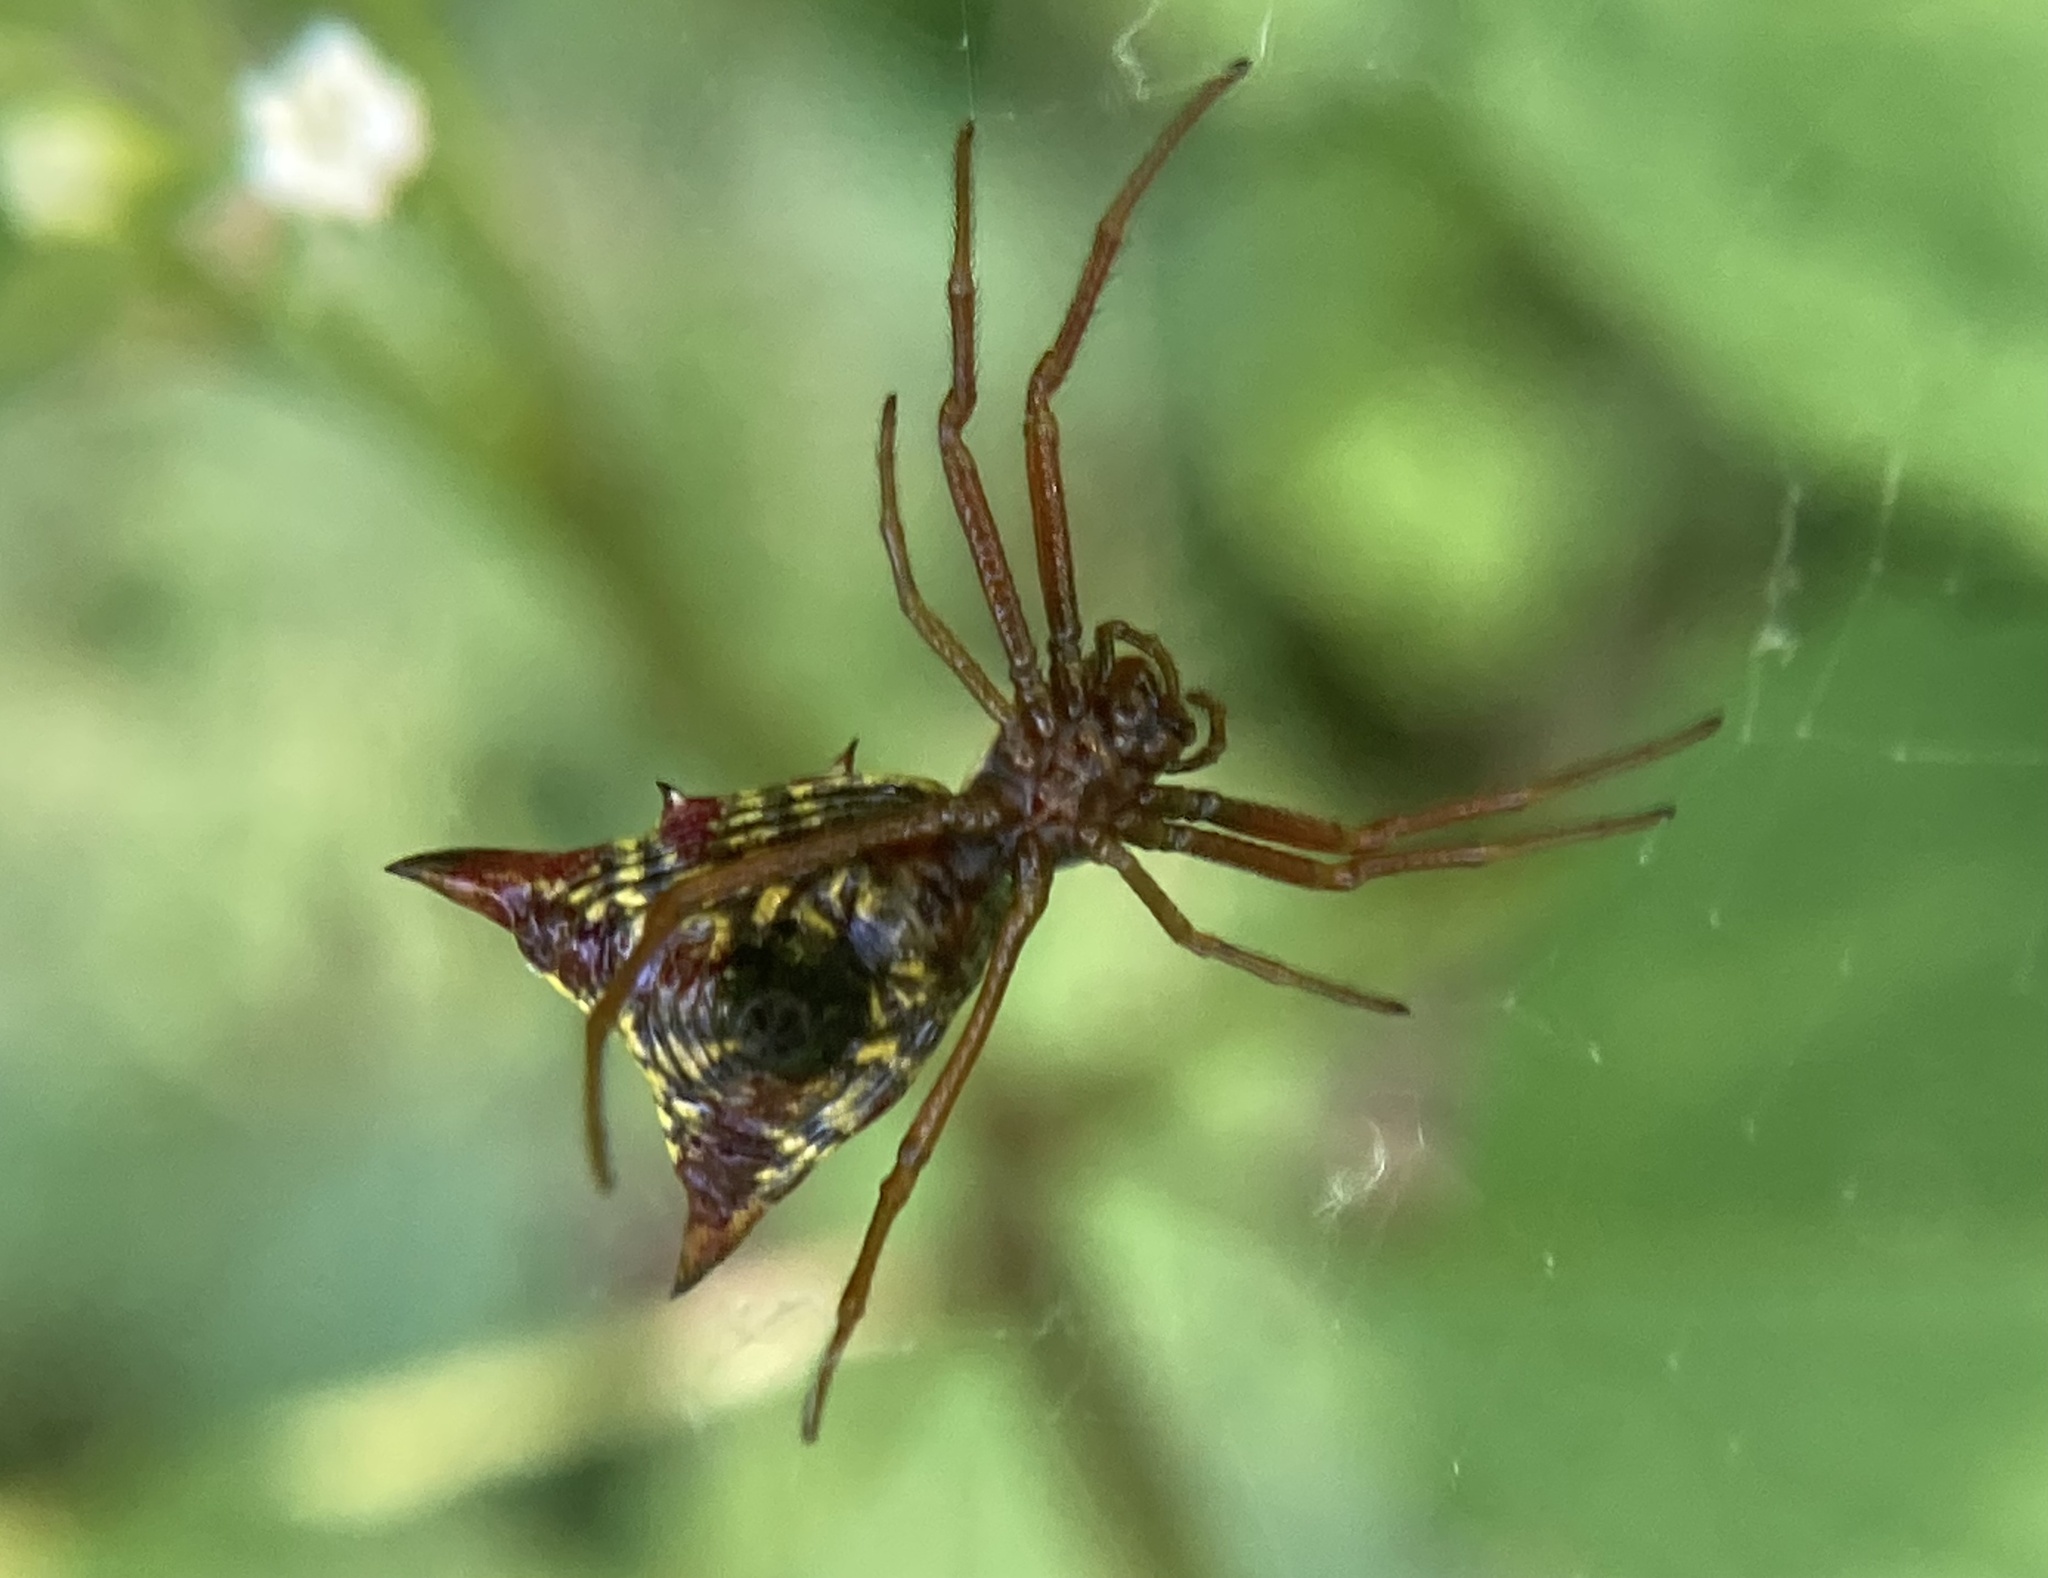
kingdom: Animalia
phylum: Arthropoda
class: Arachnida
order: Araneae
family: Araneidae
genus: Micrathena
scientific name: Micrathena sagittata
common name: Orb weavers
